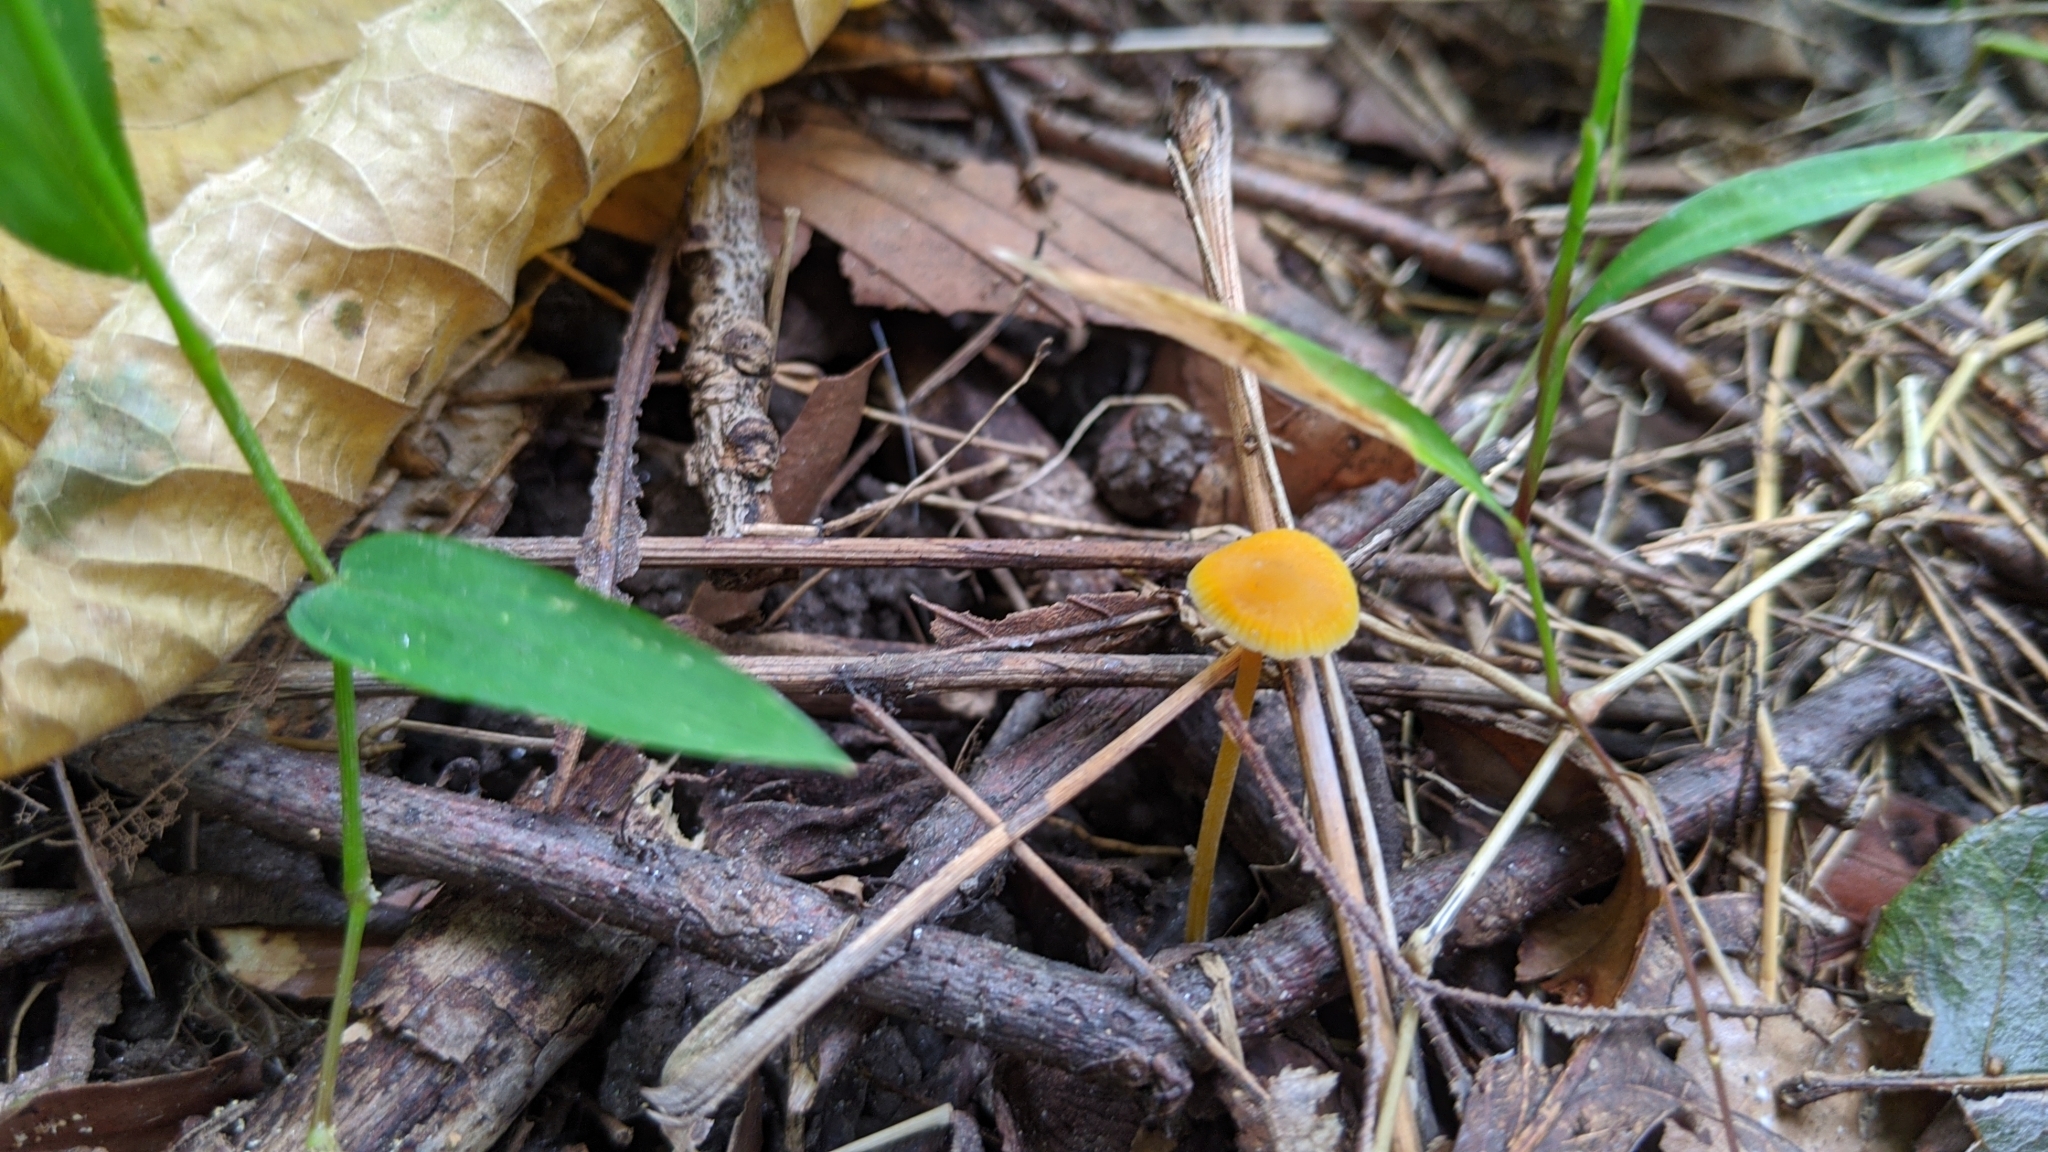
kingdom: Fungi
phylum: Basidiomycota
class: Agaricomycetes
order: Agaricales
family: Mycenaceae
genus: Mycena
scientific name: Mycena crocea
